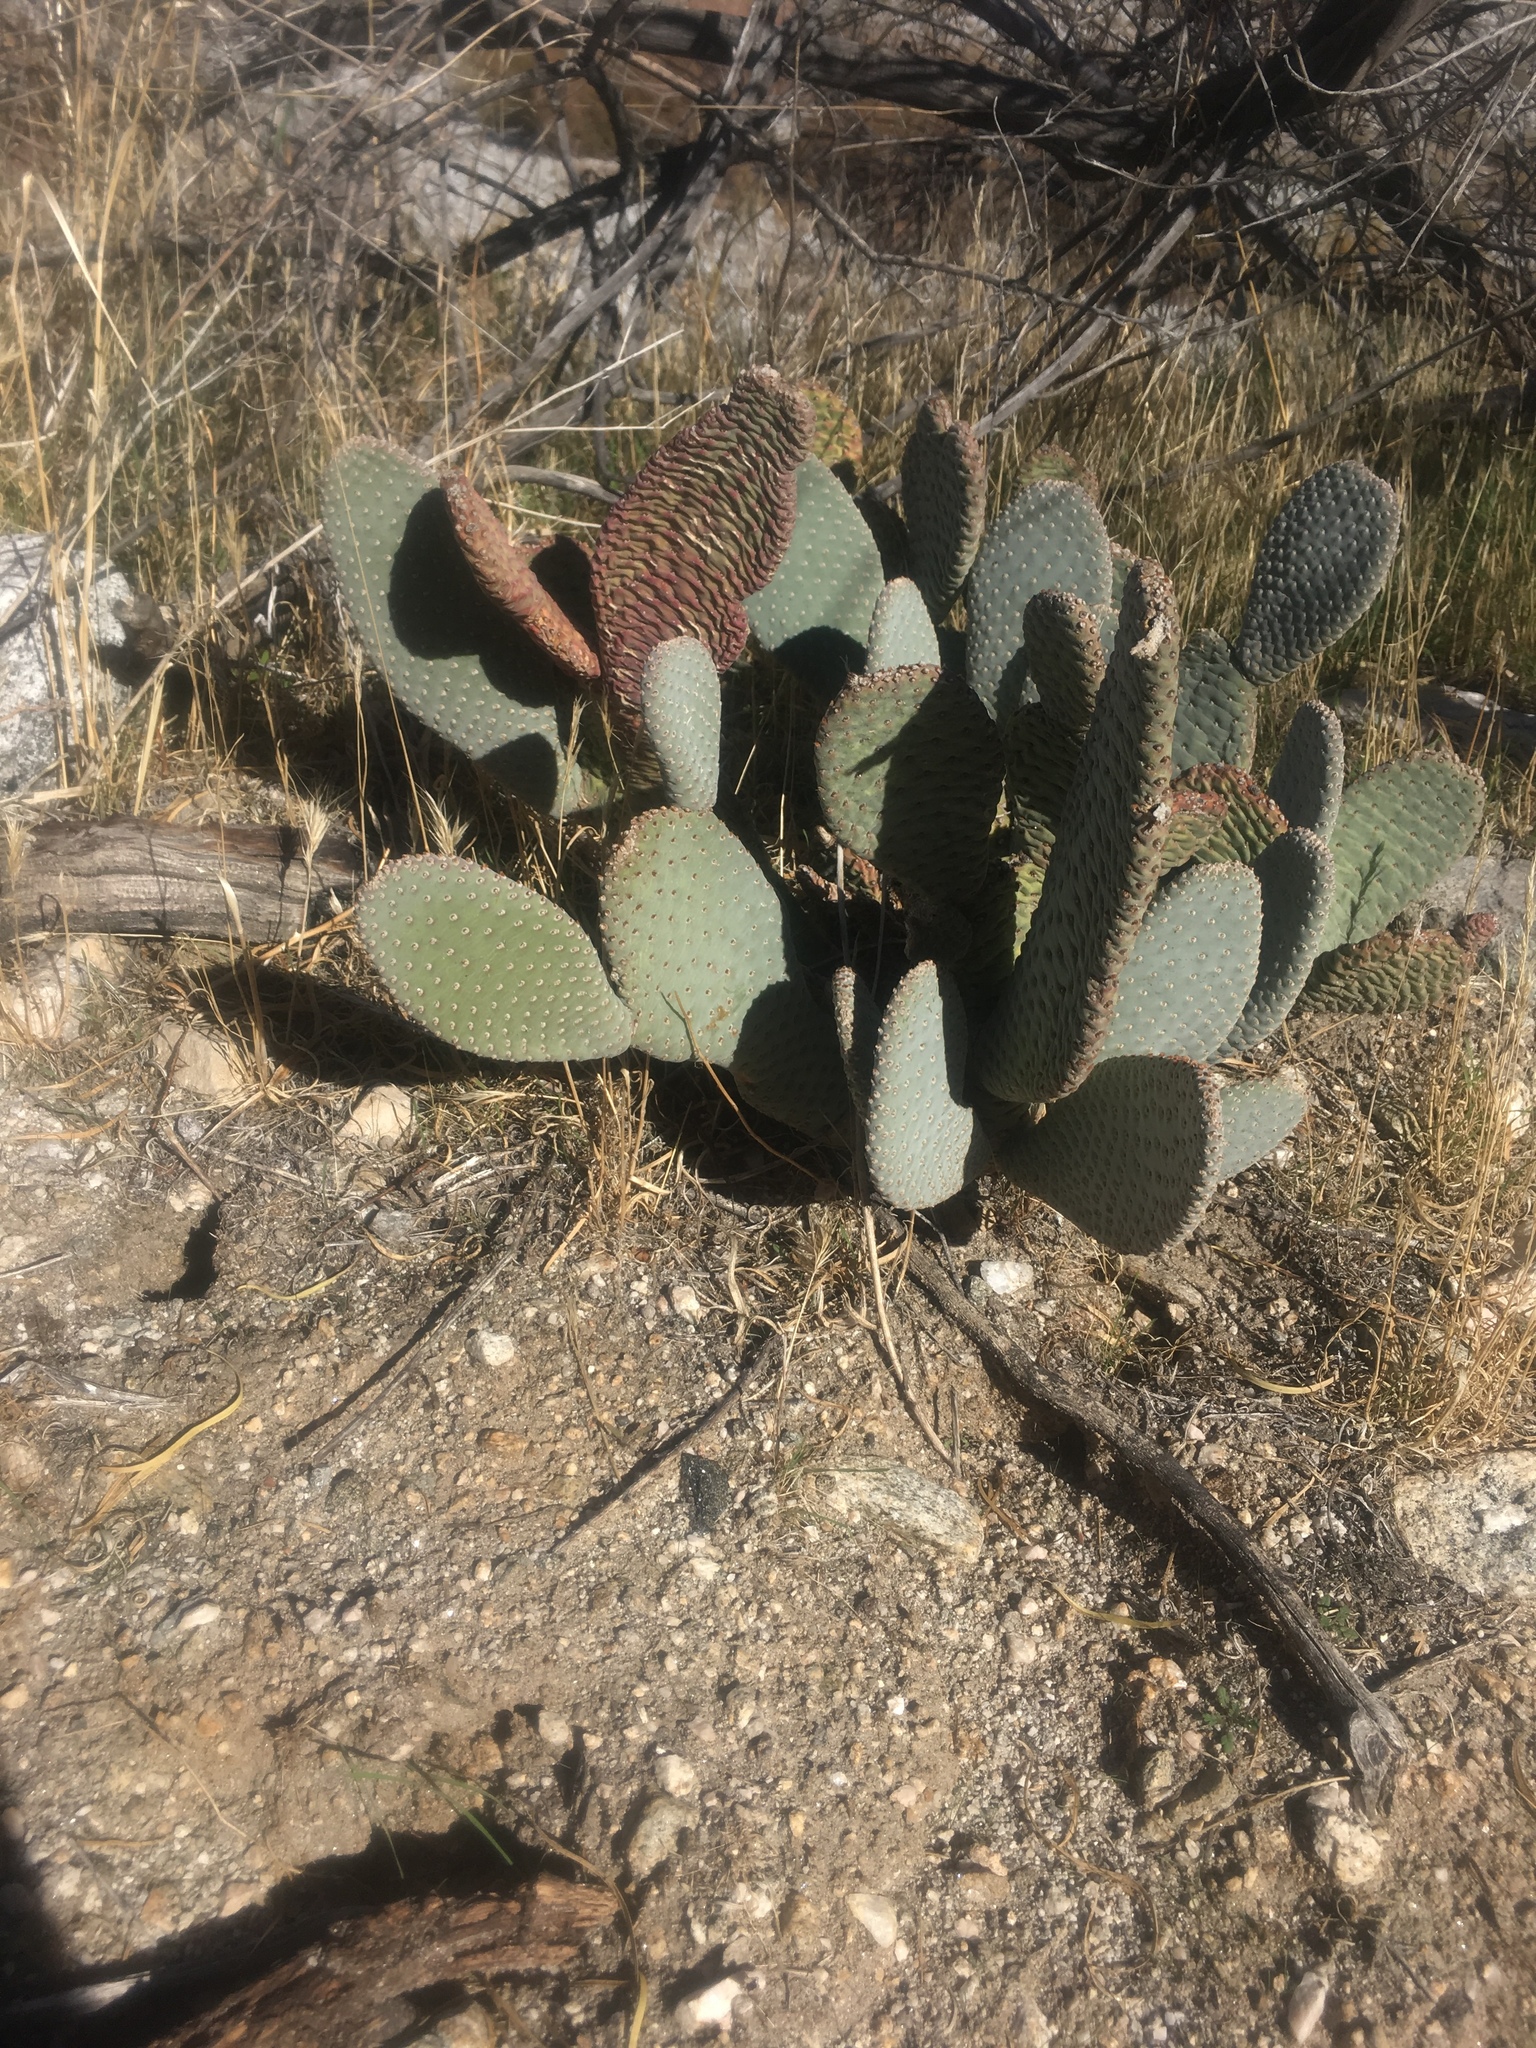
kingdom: Plantae
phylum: Tracheophyta
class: Magnoliopsida
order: Caryophyllales
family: Cactaceae
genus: Opuntia
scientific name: Opuntia basilaris
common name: Beavertail prickly-pear
